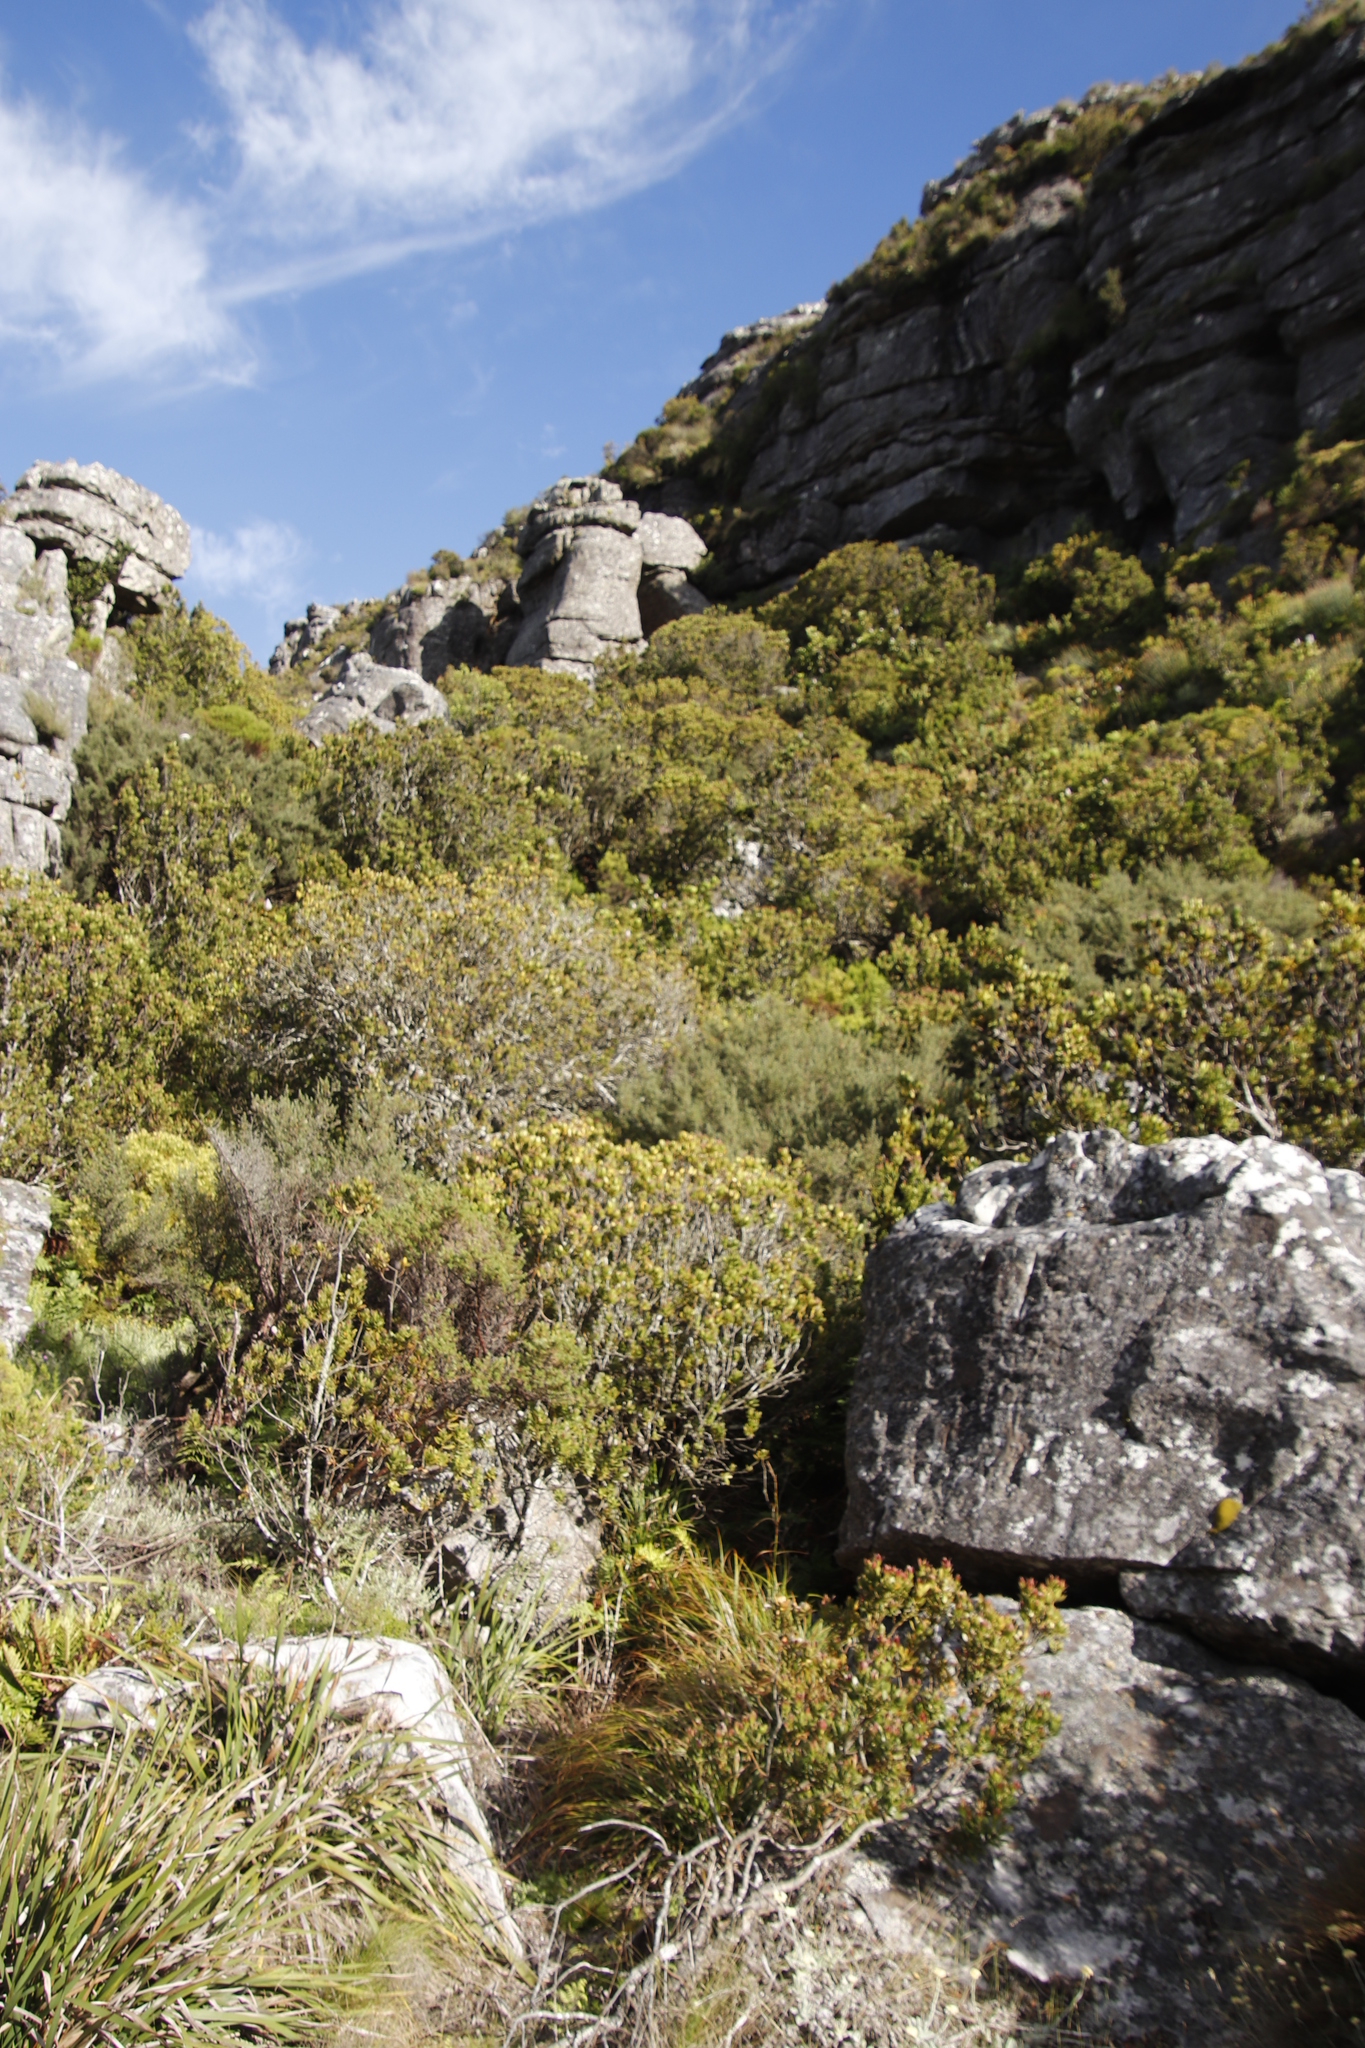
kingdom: Plantae
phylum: Tracheophyta
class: Magnoliopsida
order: Myrtales
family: Penaeaceae
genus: Penaea
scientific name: Penaea mucronata
